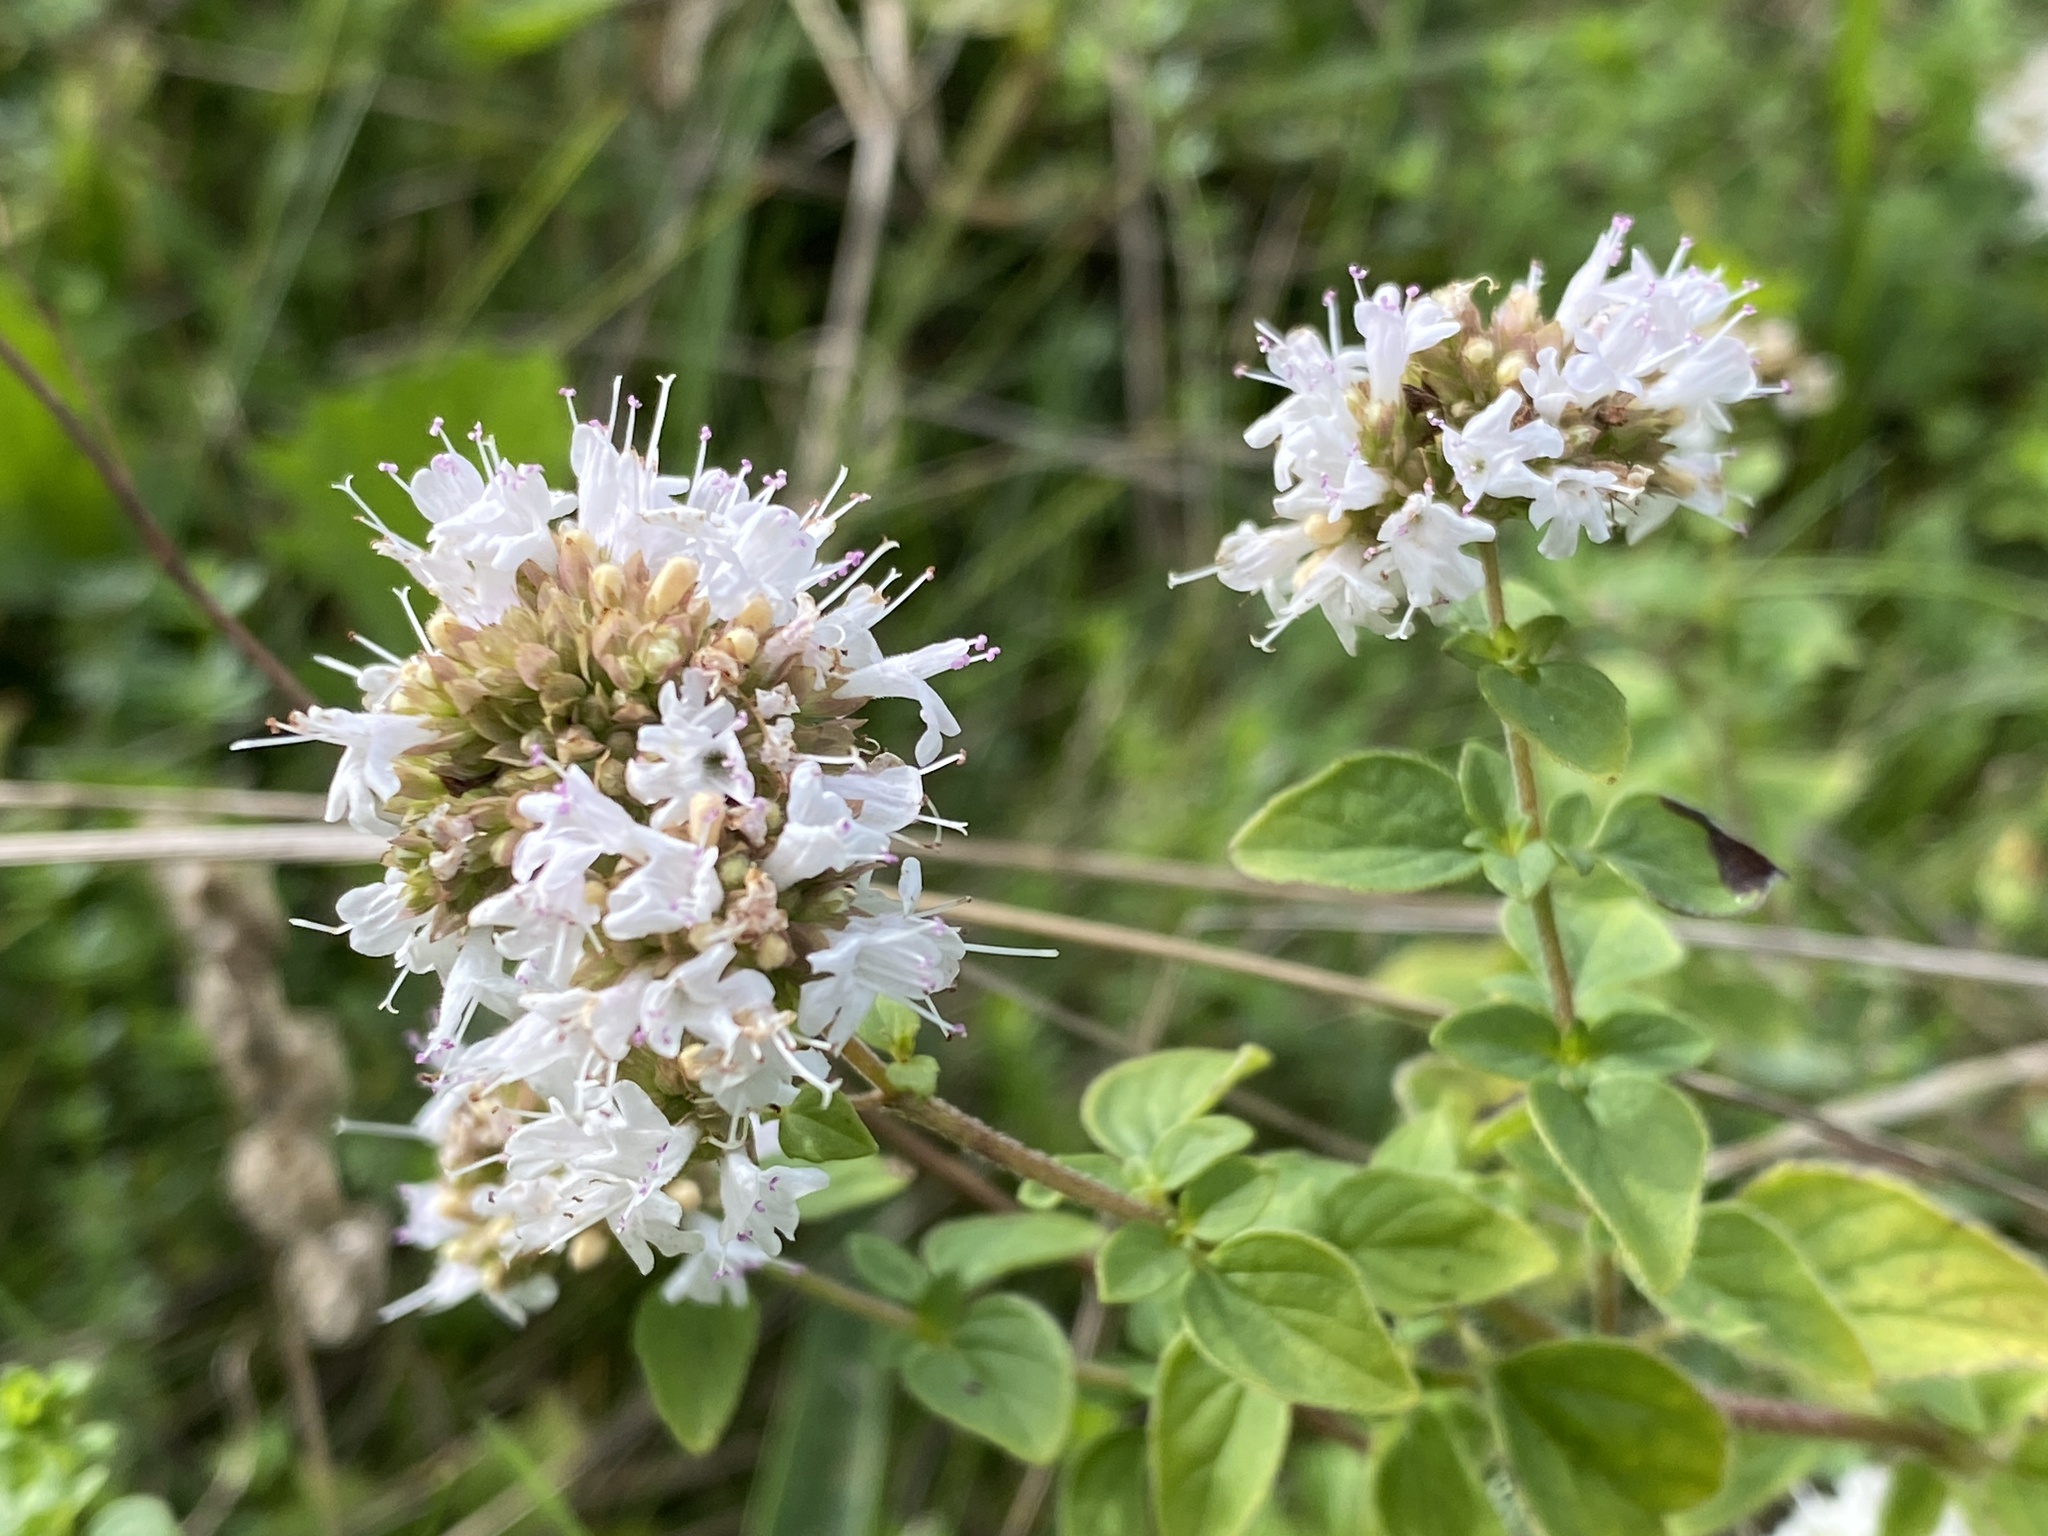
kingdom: Plantae
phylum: Tracheophyta
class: Magnoliopsida
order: Lamiales
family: Lamiaceae
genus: Origanum
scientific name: Origanum vulgare
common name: Wild marjoram
